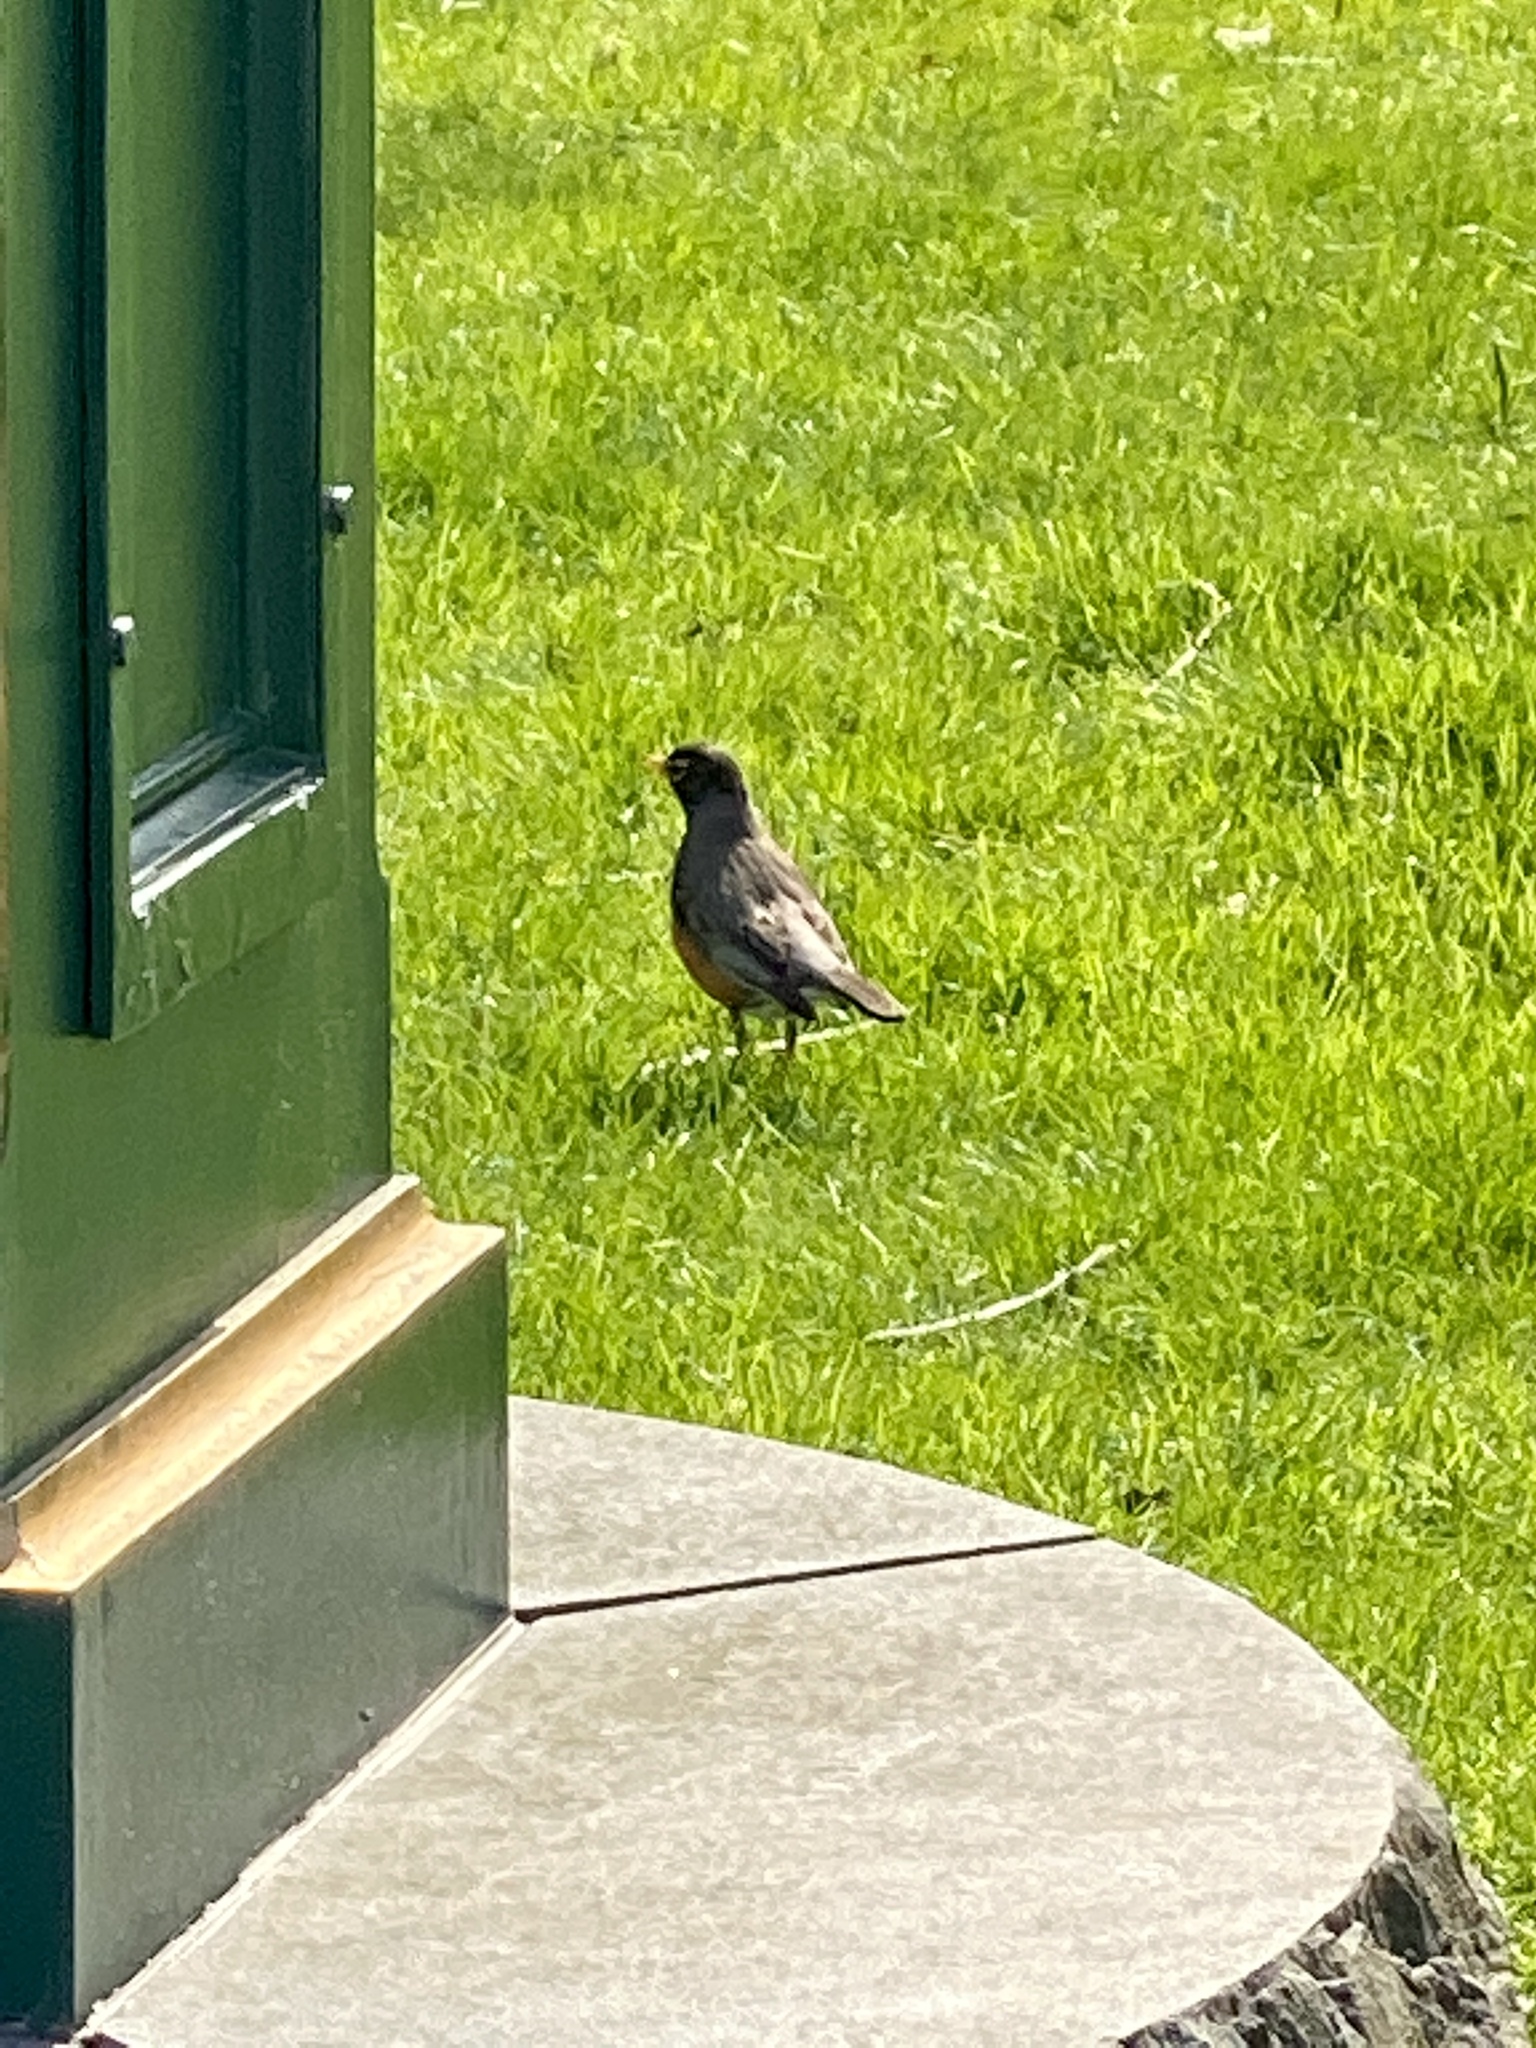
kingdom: Animalia
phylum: Chordata
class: Aves
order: Passeriformes
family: Turdidae
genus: Turdus
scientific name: Turdus migratorius
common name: American robin
